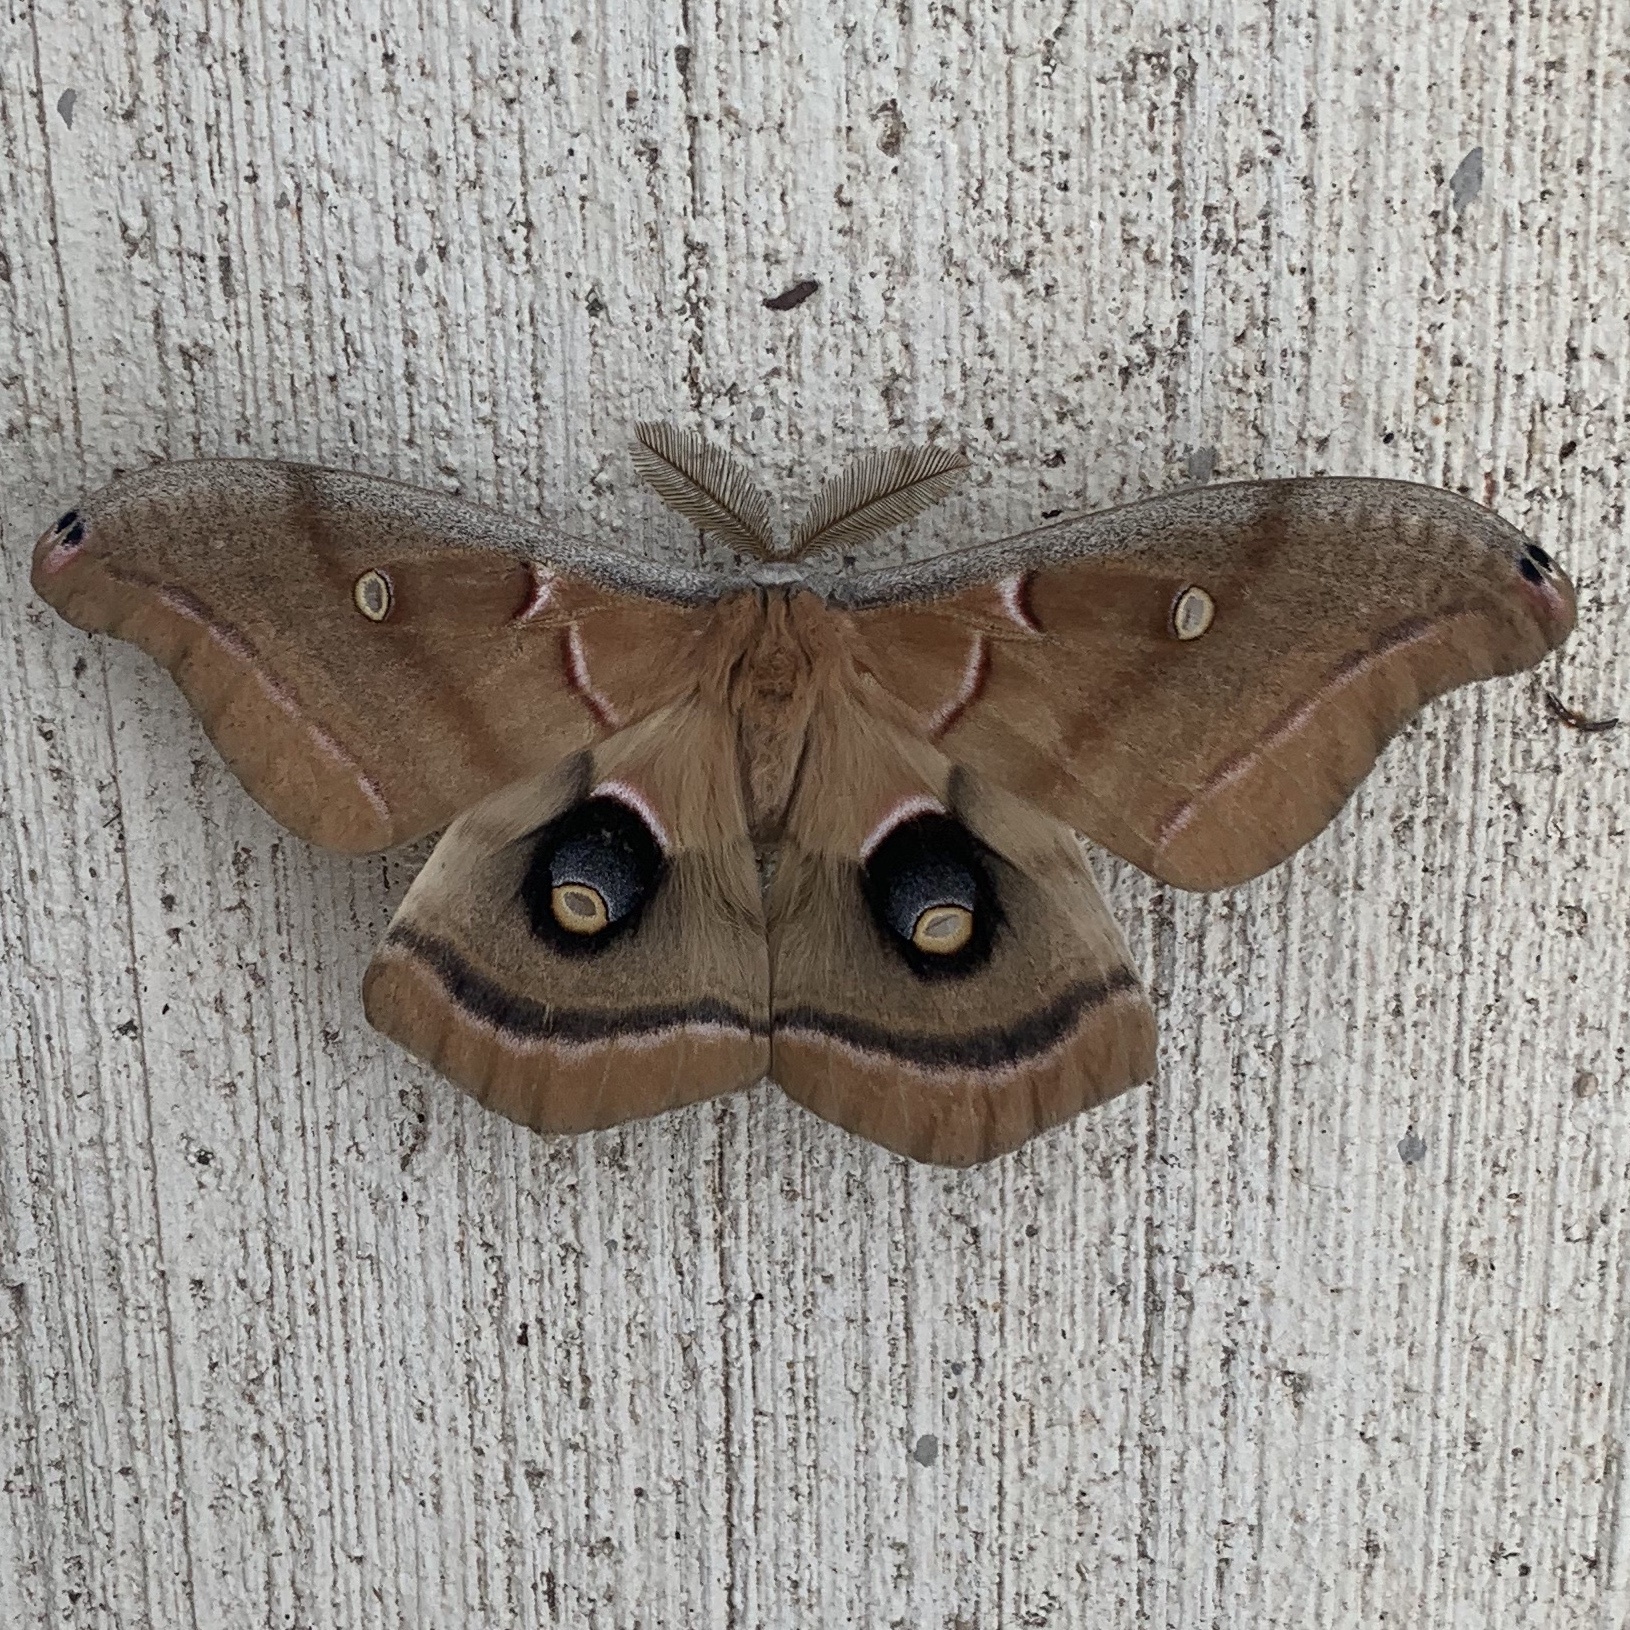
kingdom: Animalia
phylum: Arthropoda
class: Insecta
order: Lepidoptera
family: Saturniidae
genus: Antheraea
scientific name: Antheraea polyphemus
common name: Polyphemus moth
